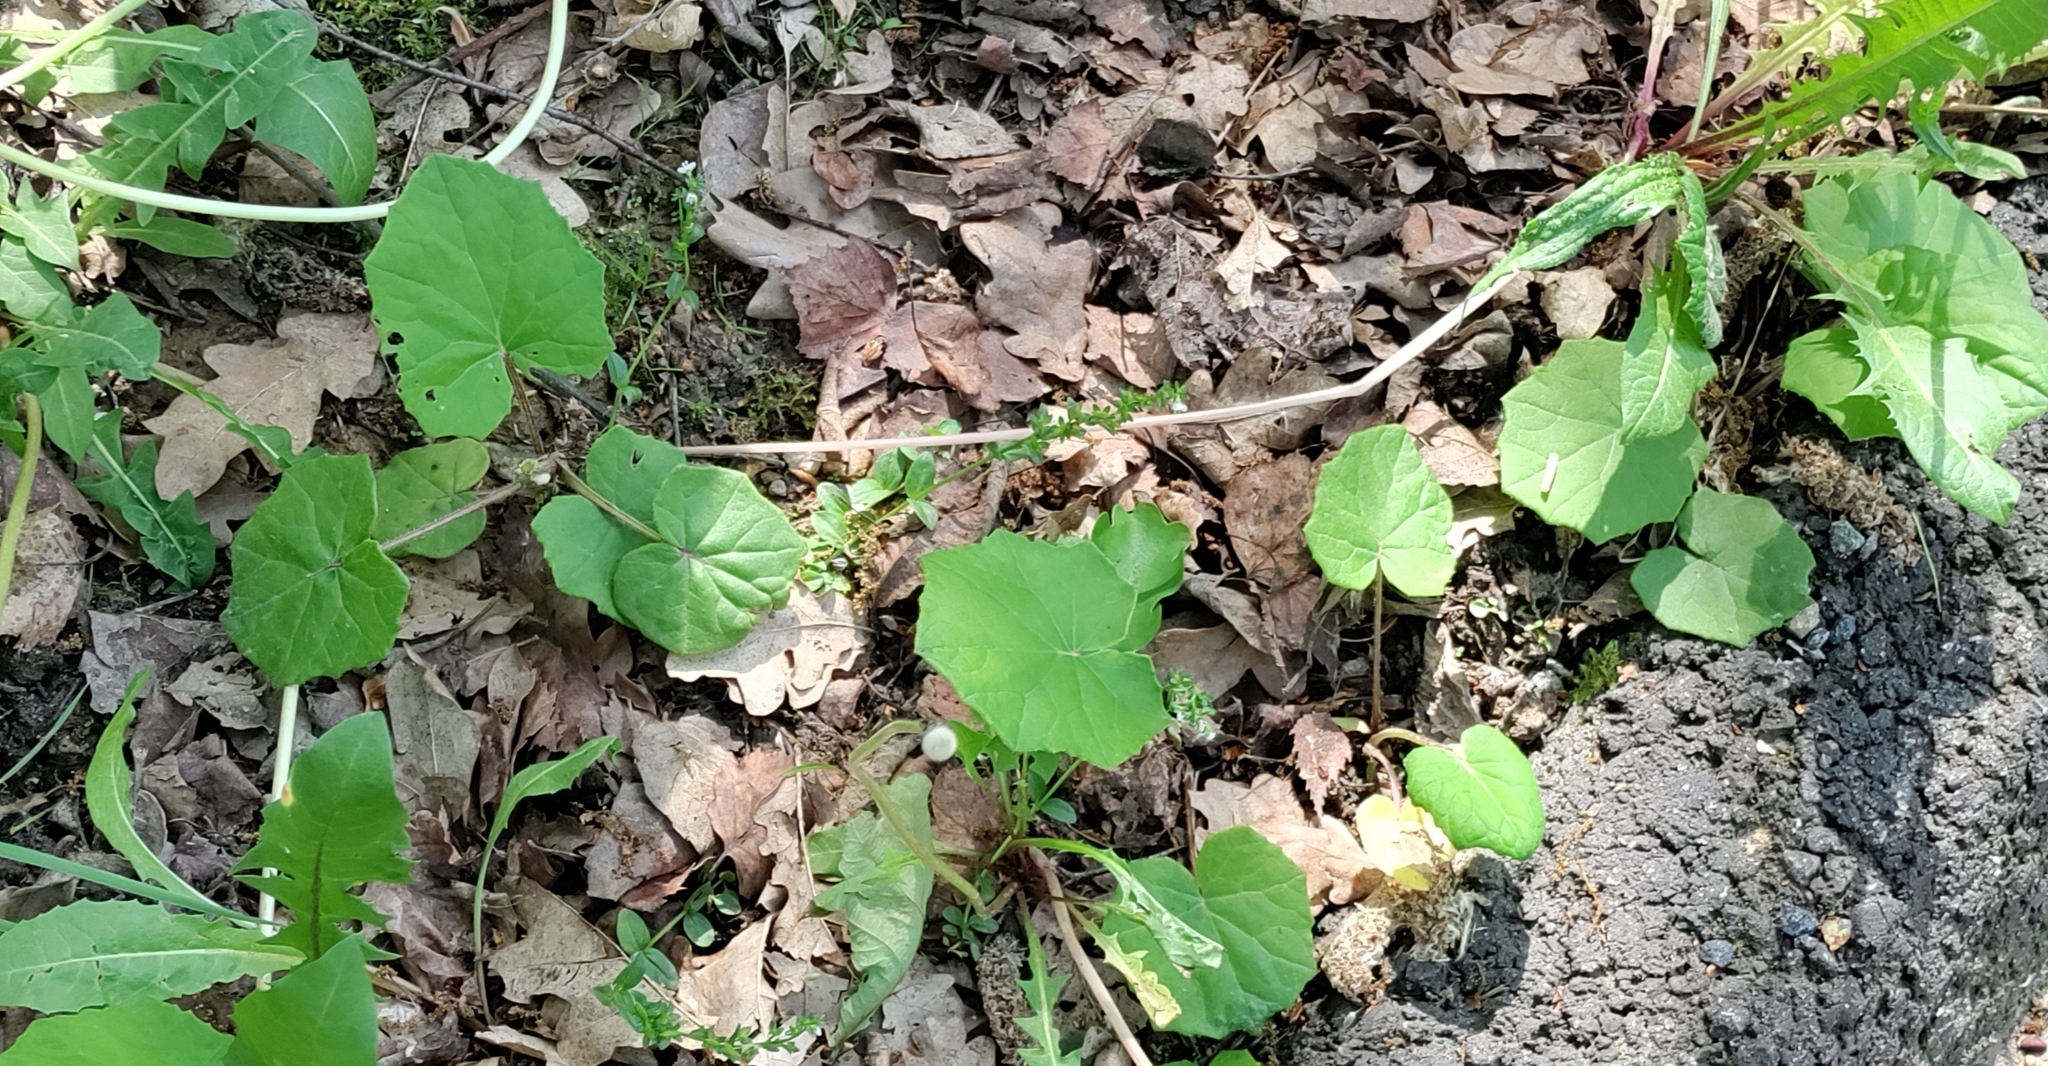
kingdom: Plantae
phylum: Tracheophyta
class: Magnoliopsida
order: Asterales
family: Asteraceae
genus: Tussilago
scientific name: Tussilago farfara
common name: Coltsfoot
